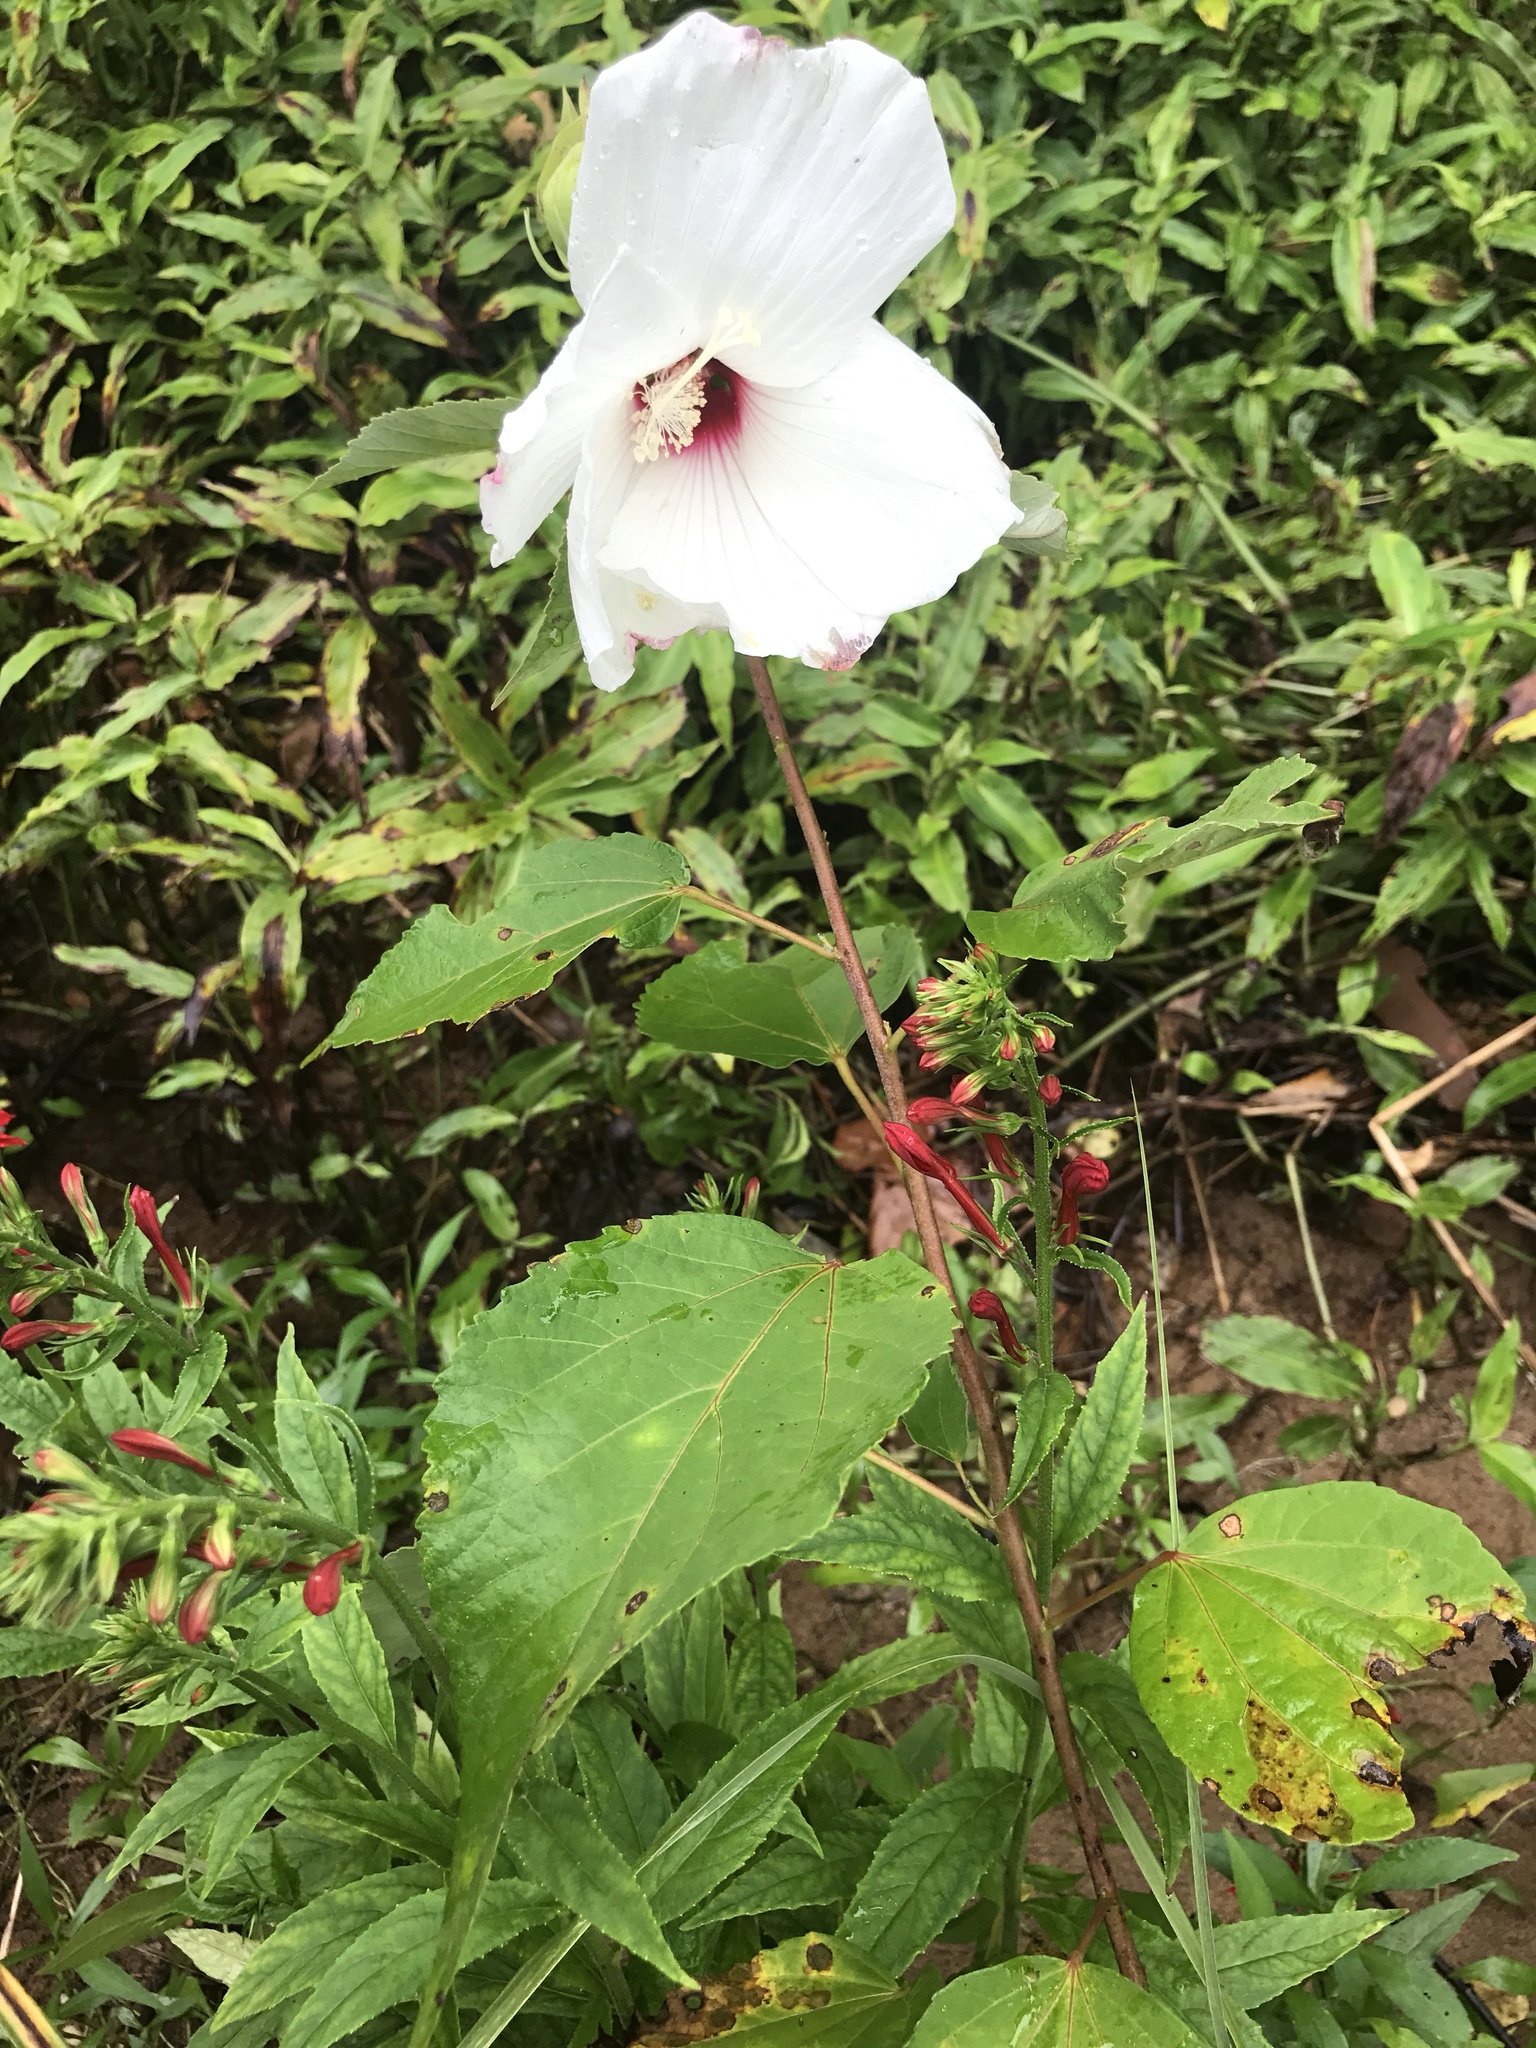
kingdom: Plantae
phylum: Tracheophyta
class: Magnoliopsida
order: Malvales
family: Malvaceae
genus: Hibiscus
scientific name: Hibiscus moscheutos
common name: Common rose-mallow
